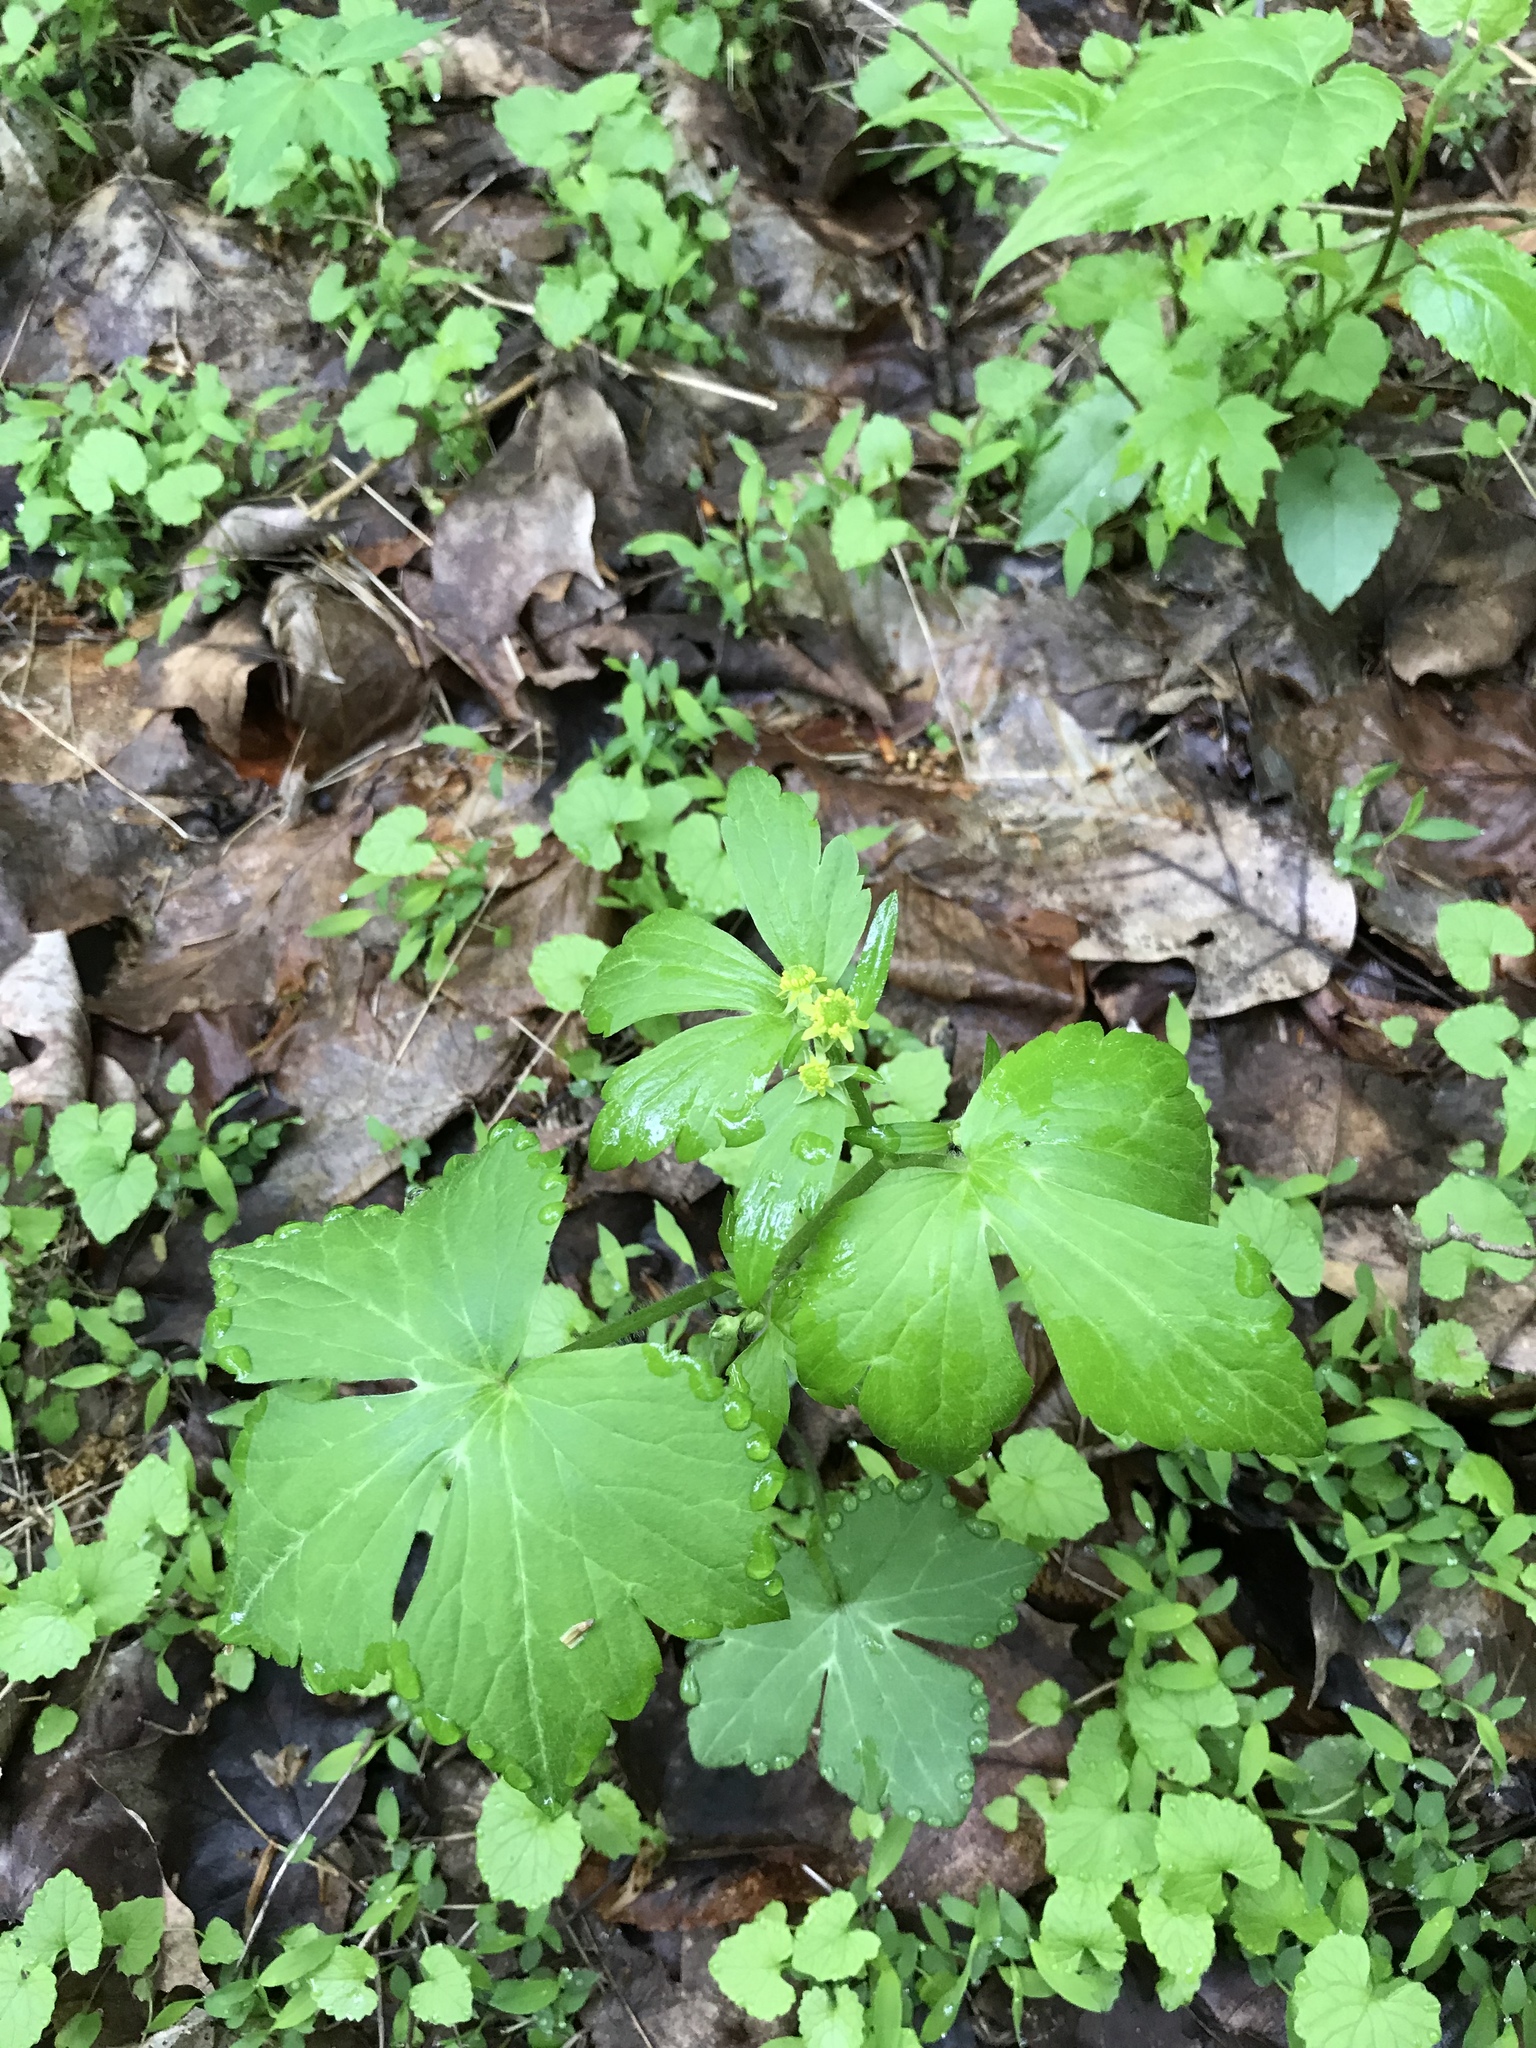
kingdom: Plantae
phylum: Tracheophyta
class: Magnoliopsida
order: Ranunculales
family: Ranunculaceae
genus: Ranunculus
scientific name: Ranunculus recurvatus
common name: Blisterwort
